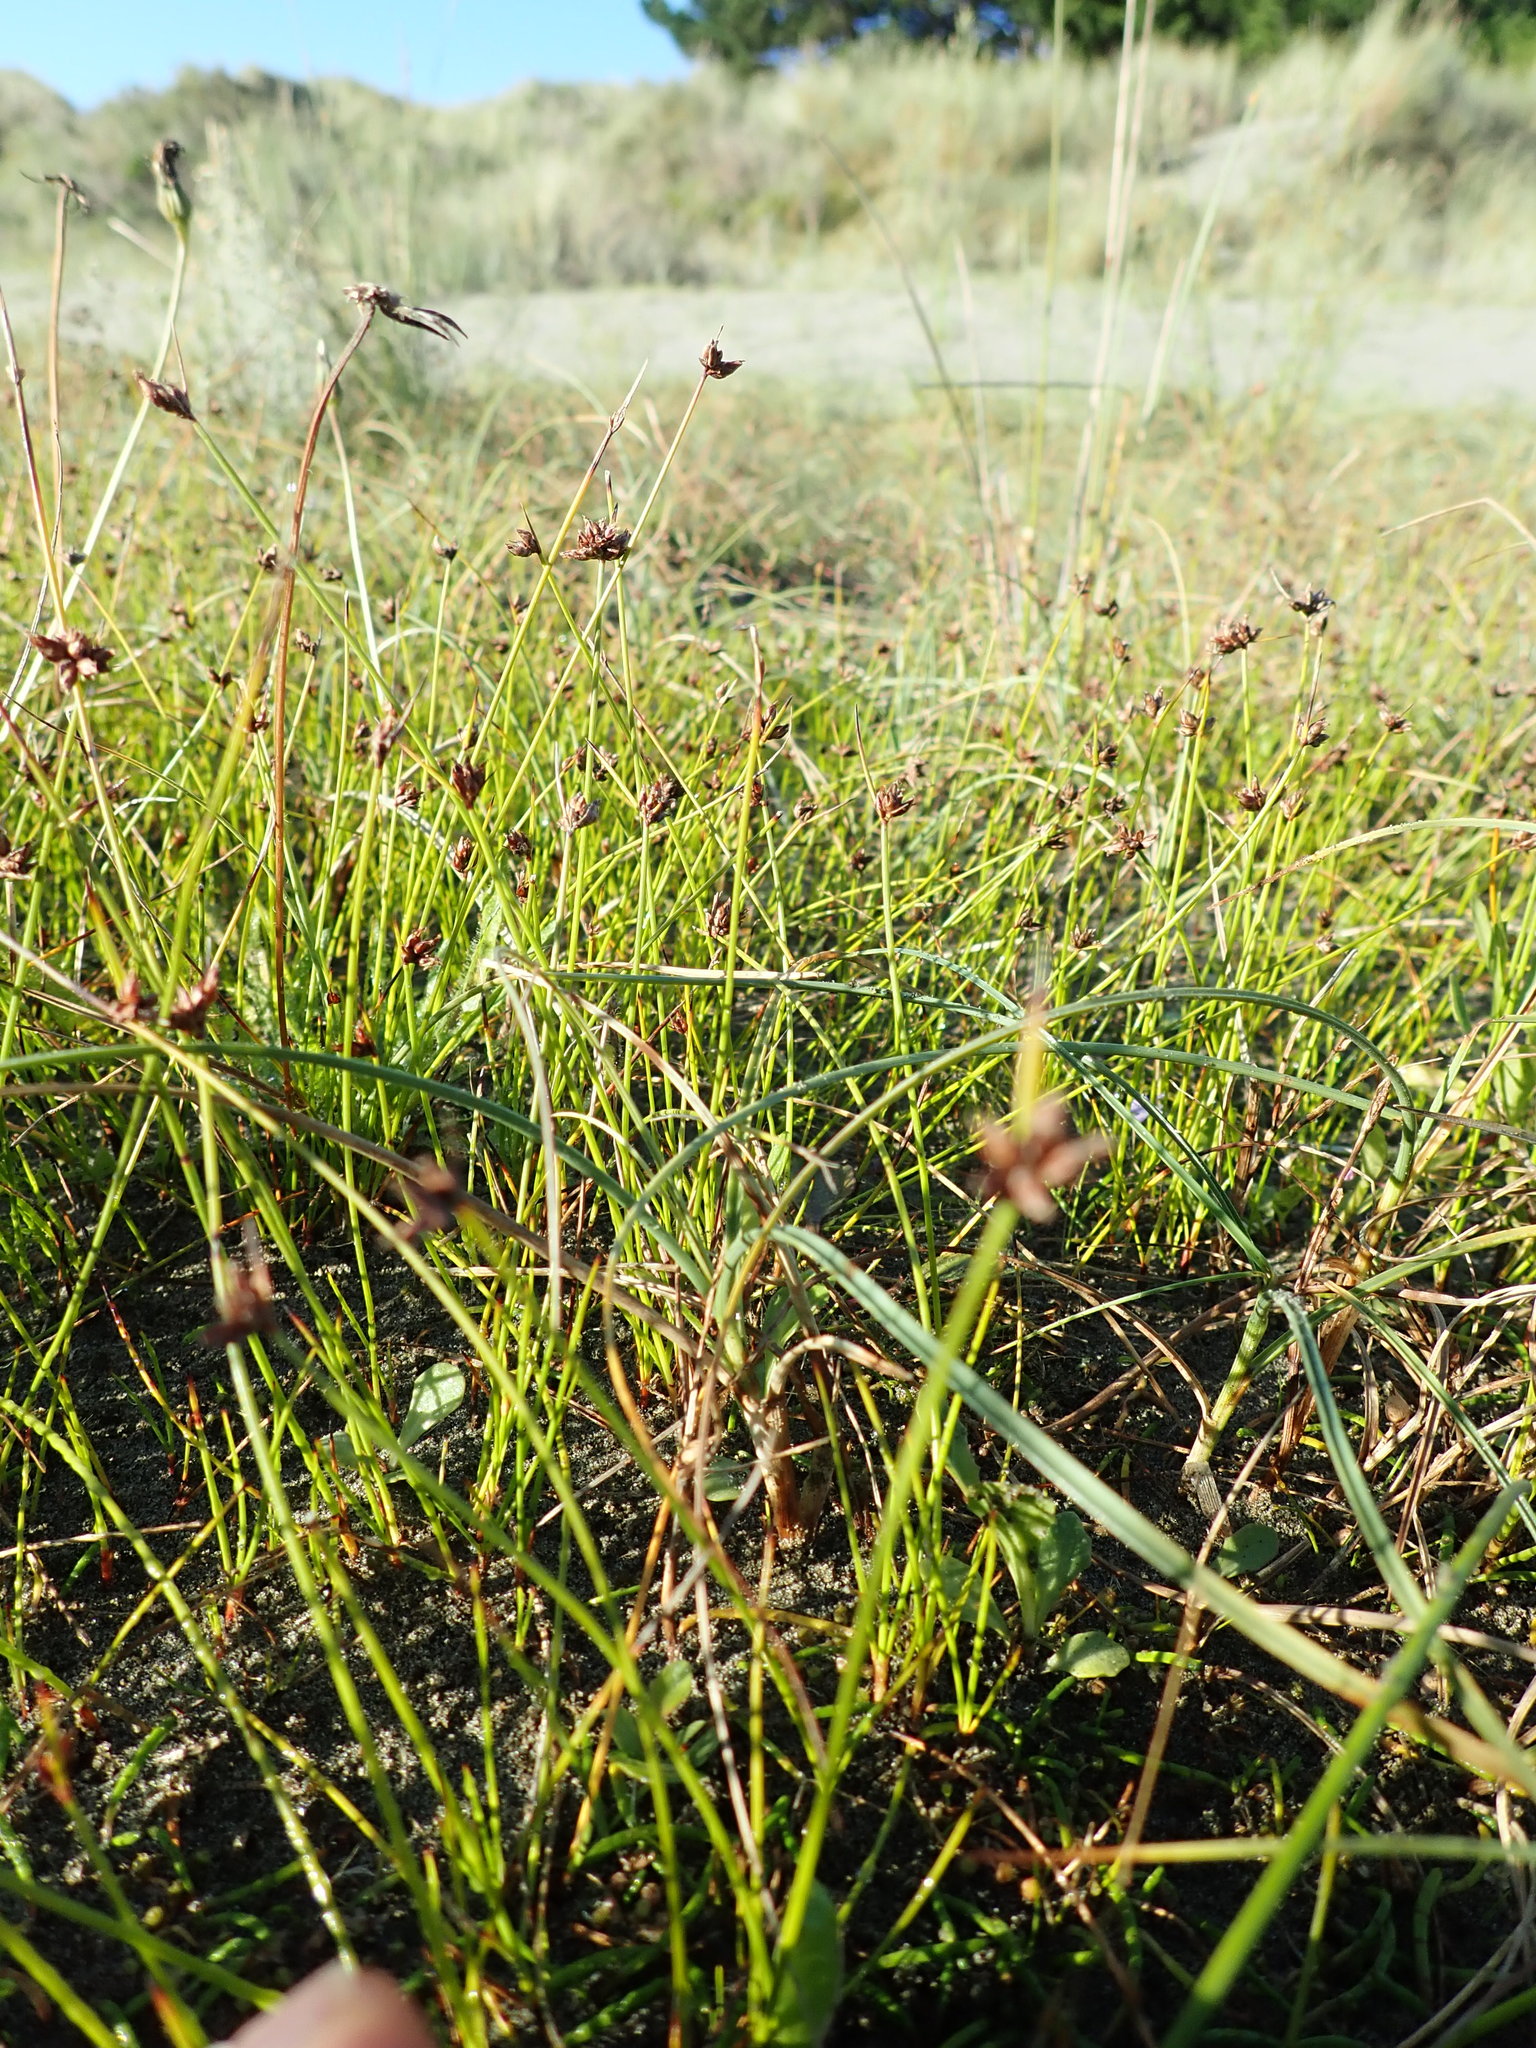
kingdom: Plantae
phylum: Tracheophyta
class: Liliopsida
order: Poales
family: Cyperaceae
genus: Schoenus
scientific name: Schoenus nitens
